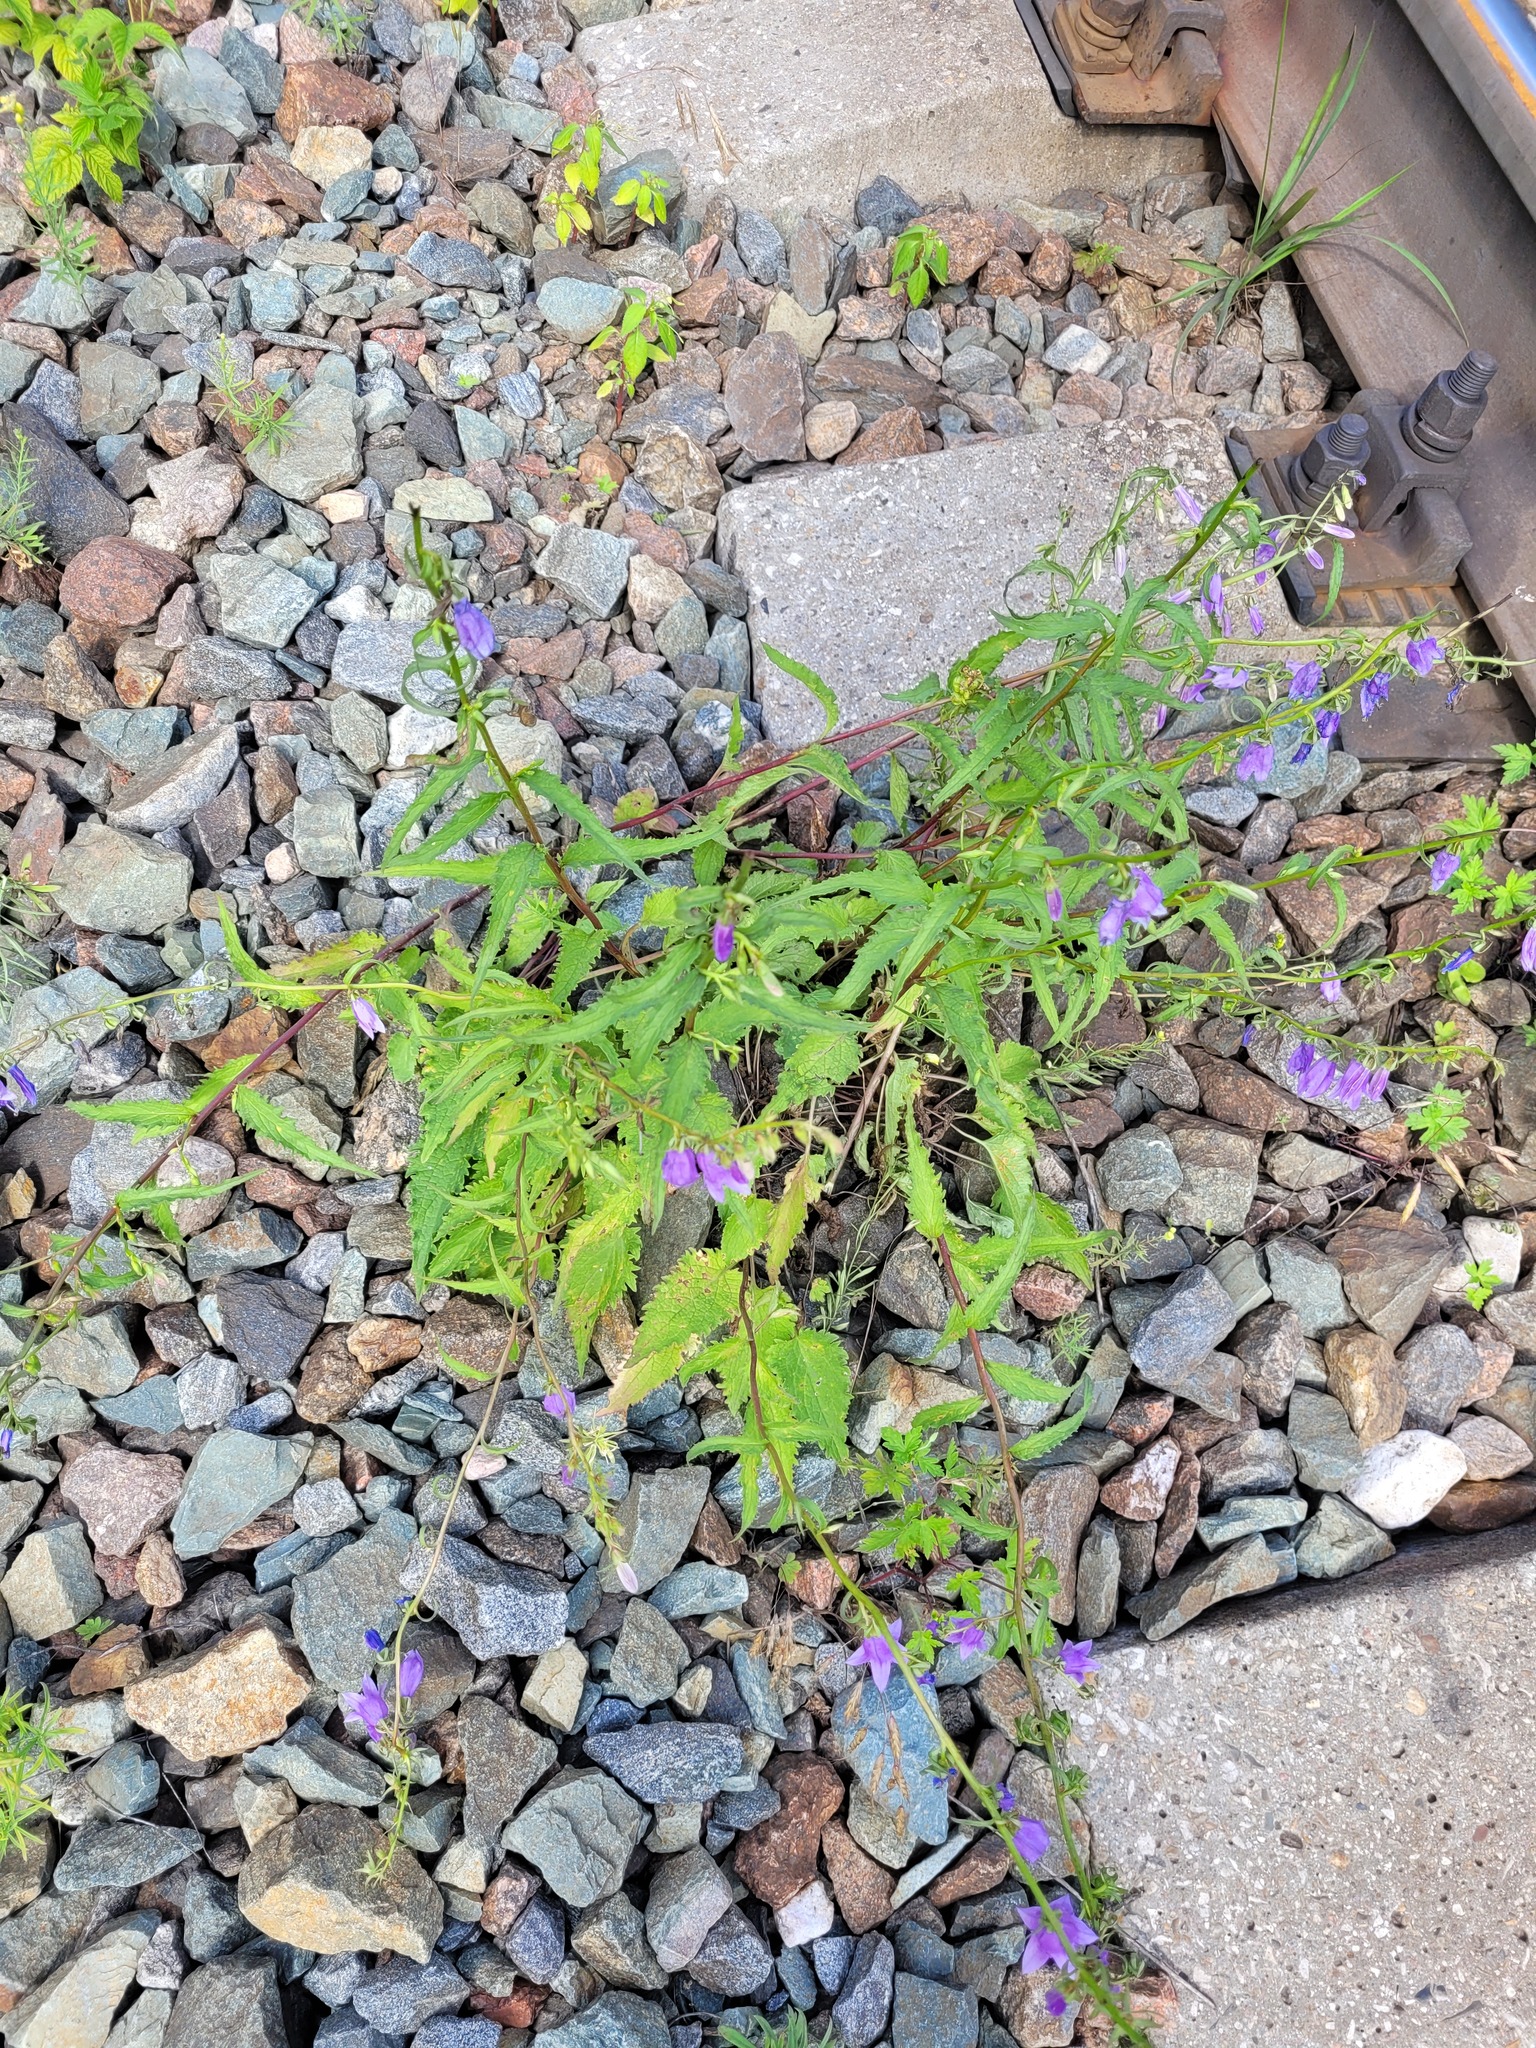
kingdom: Plantae
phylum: Tracheophyta
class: Magnoliopsida
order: Asterales
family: Campanulaceae
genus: Campanula
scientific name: Campanula rapunculoides
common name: Creeping bellflower
